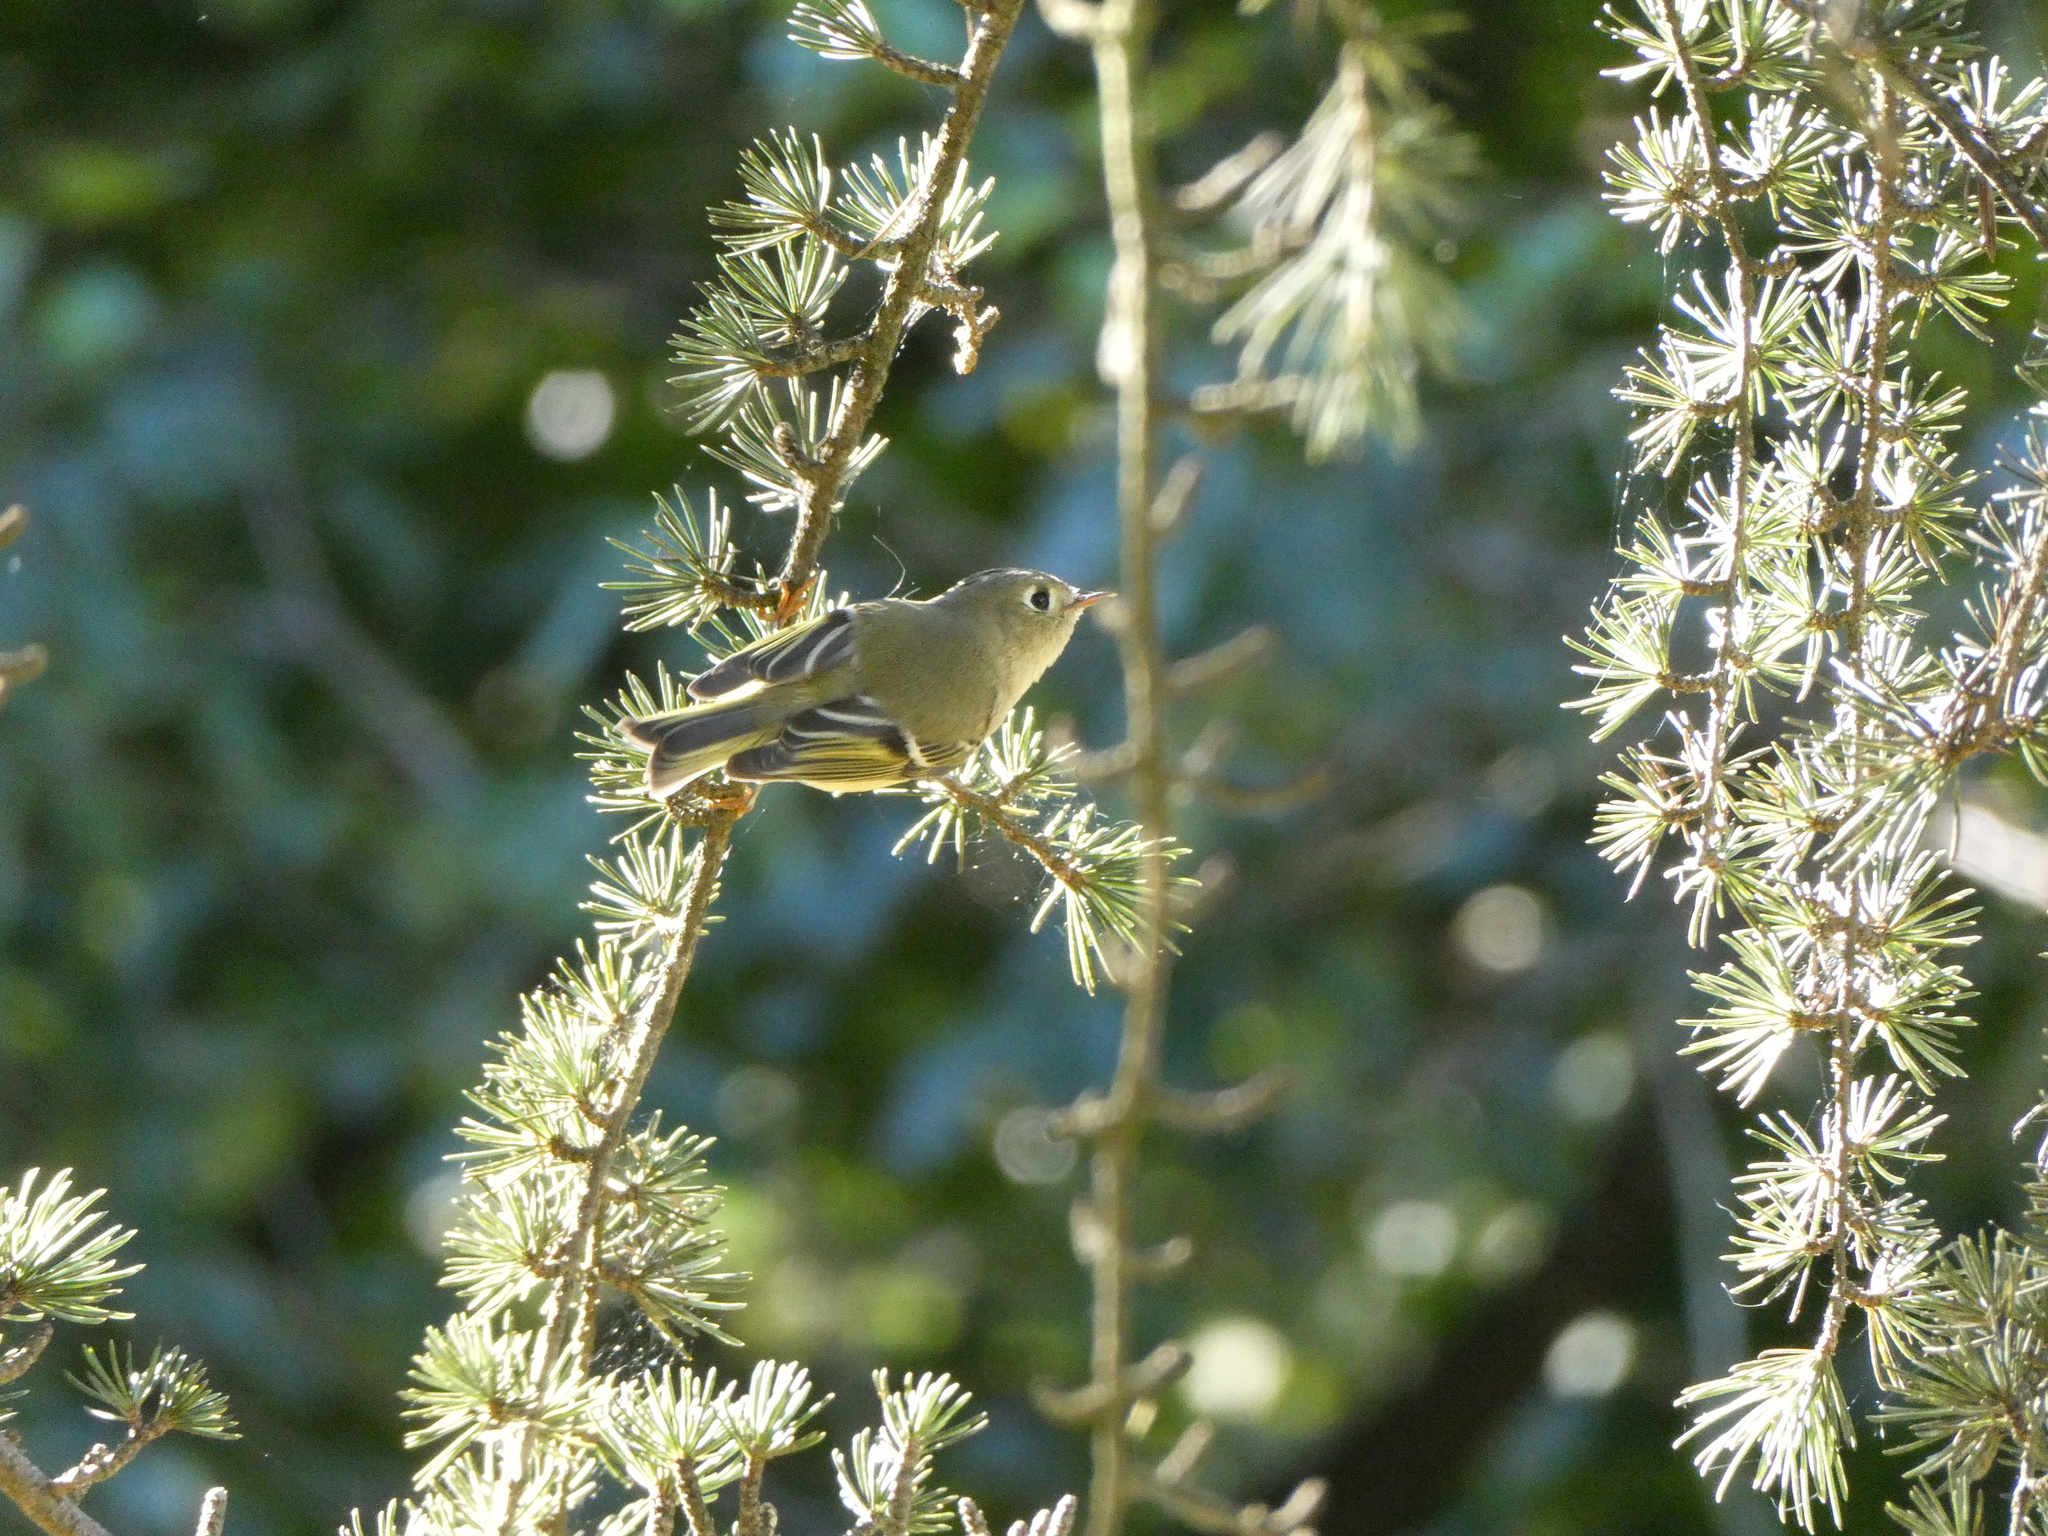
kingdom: Animalia
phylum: Chordata
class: Aves
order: Passeriformes
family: Regulidae
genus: Regulus
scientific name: Regulus calendula
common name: Ruby-crowned kinglet
